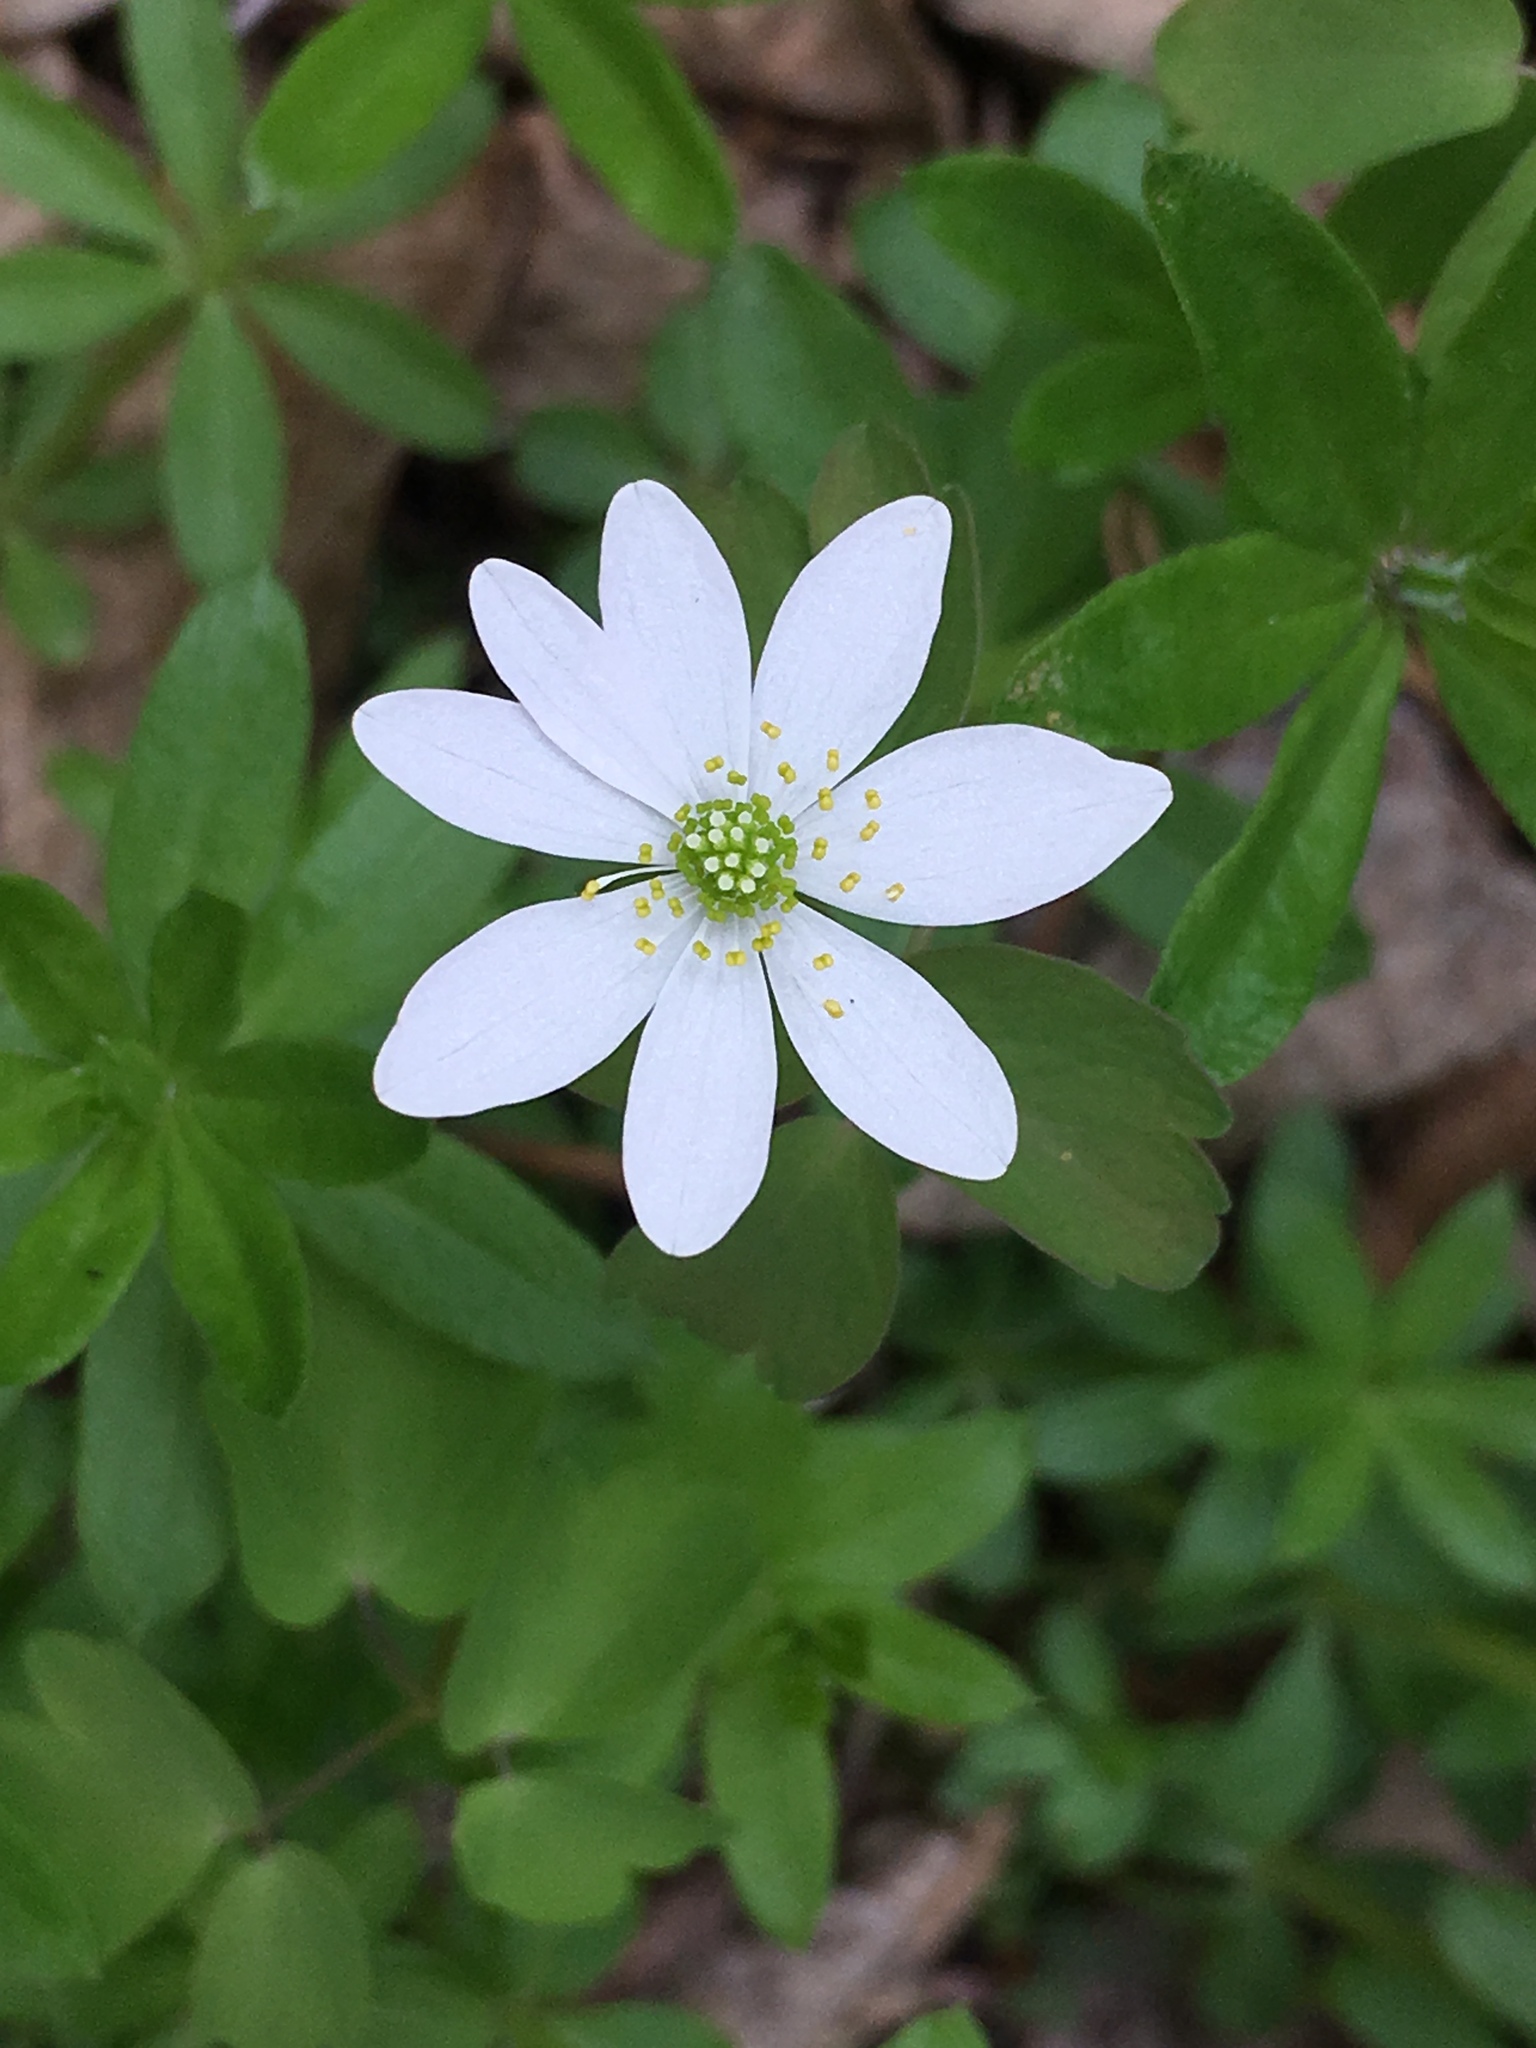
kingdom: Plantae
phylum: Tracheophyta
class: Magnoliopsida
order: Ranunculales
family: Ranunculaceae
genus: Thalictrum
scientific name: Thalictrum thalictroides
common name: Rue-anemone
